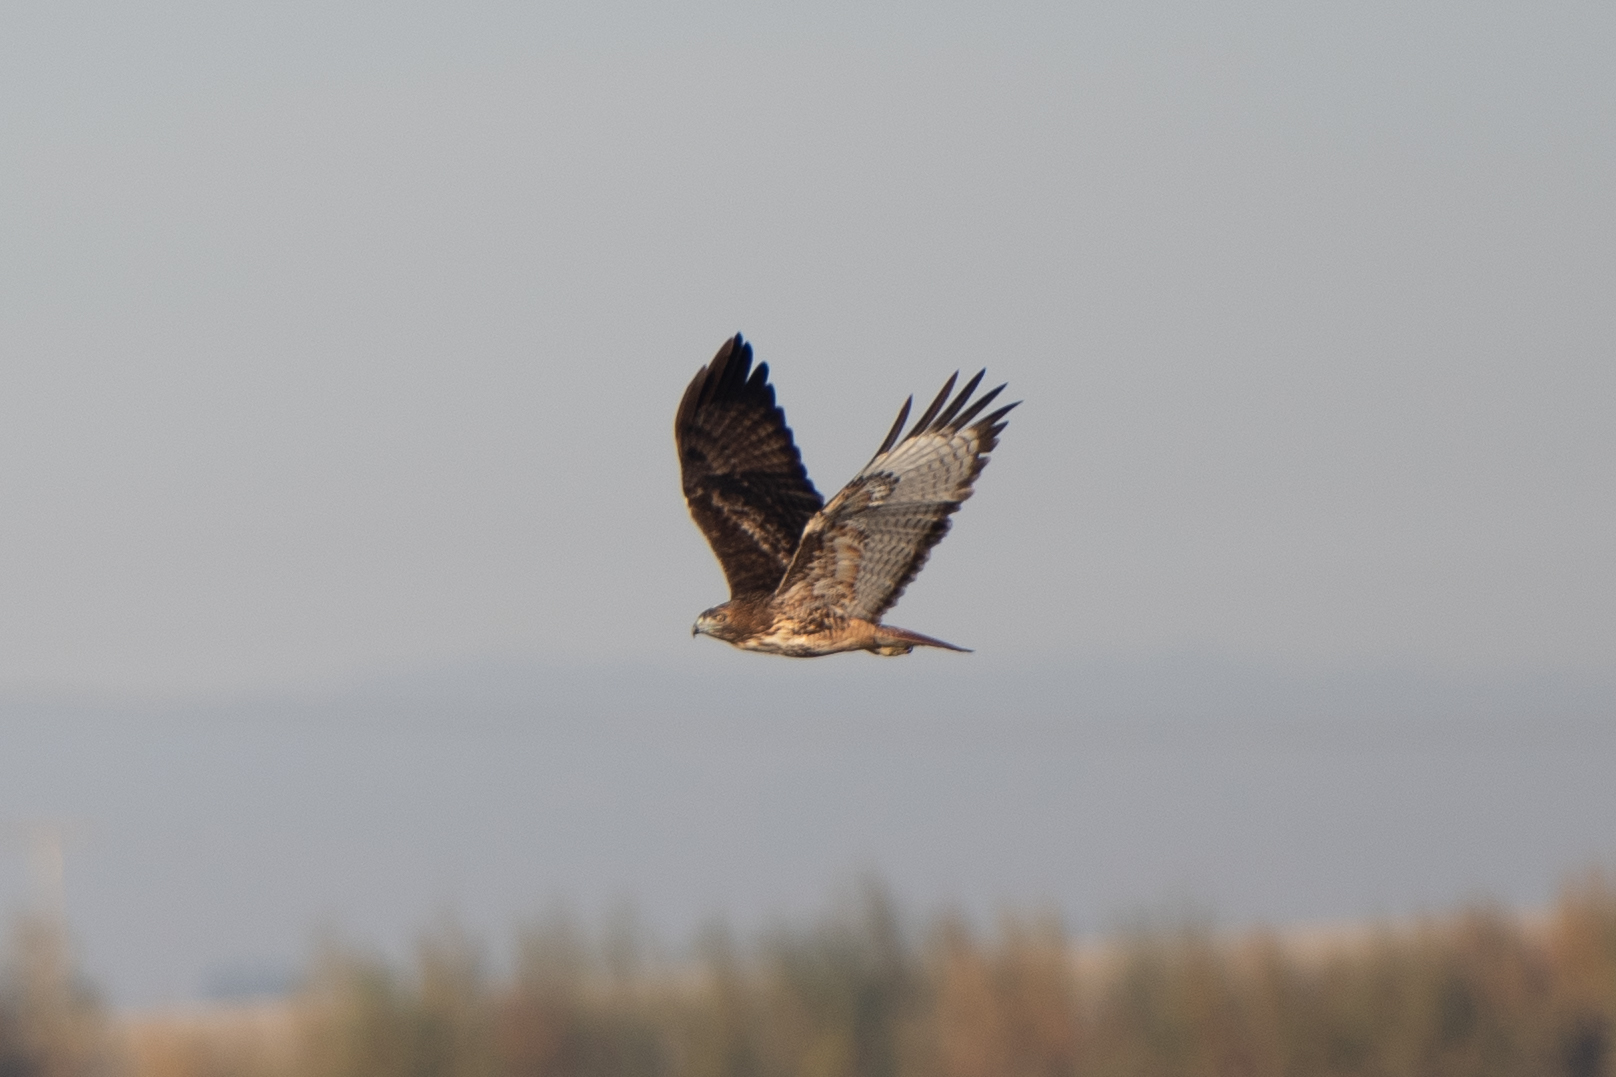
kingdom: Animalia
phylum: Chordata
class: Aves
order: Accipitriformes
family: Accipitridae
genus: Buteo
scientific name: Buteo jamaicensis
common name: Red-tailed hawk
